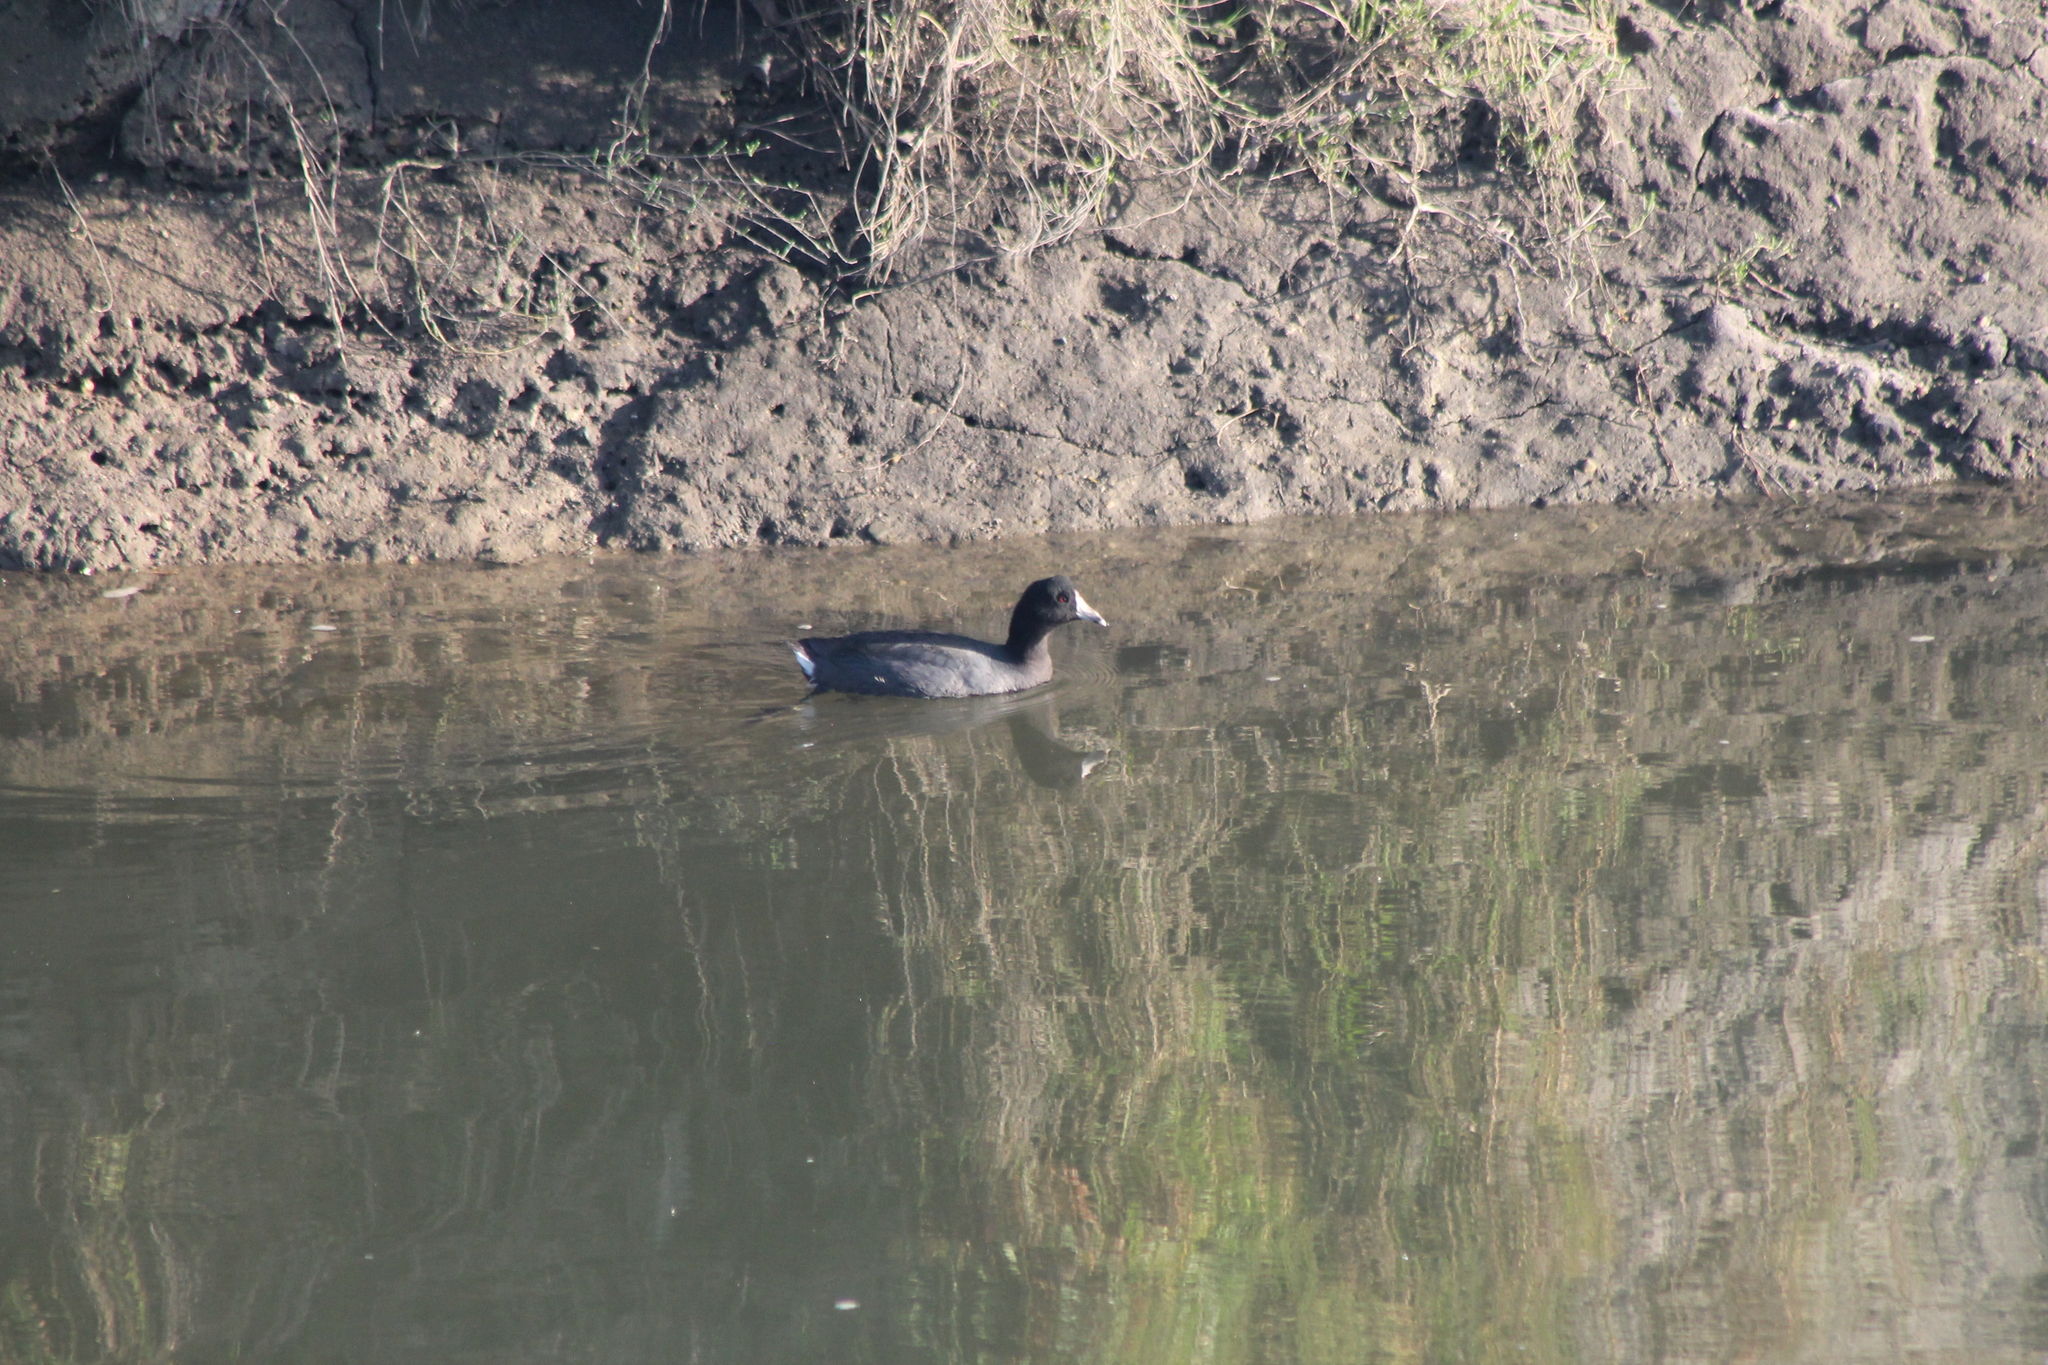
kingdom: Animalia
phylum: Chordata
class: Aves
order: Gruiformes
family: Rallidae
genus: Fulica
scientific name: Fulica americana
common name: American coot
